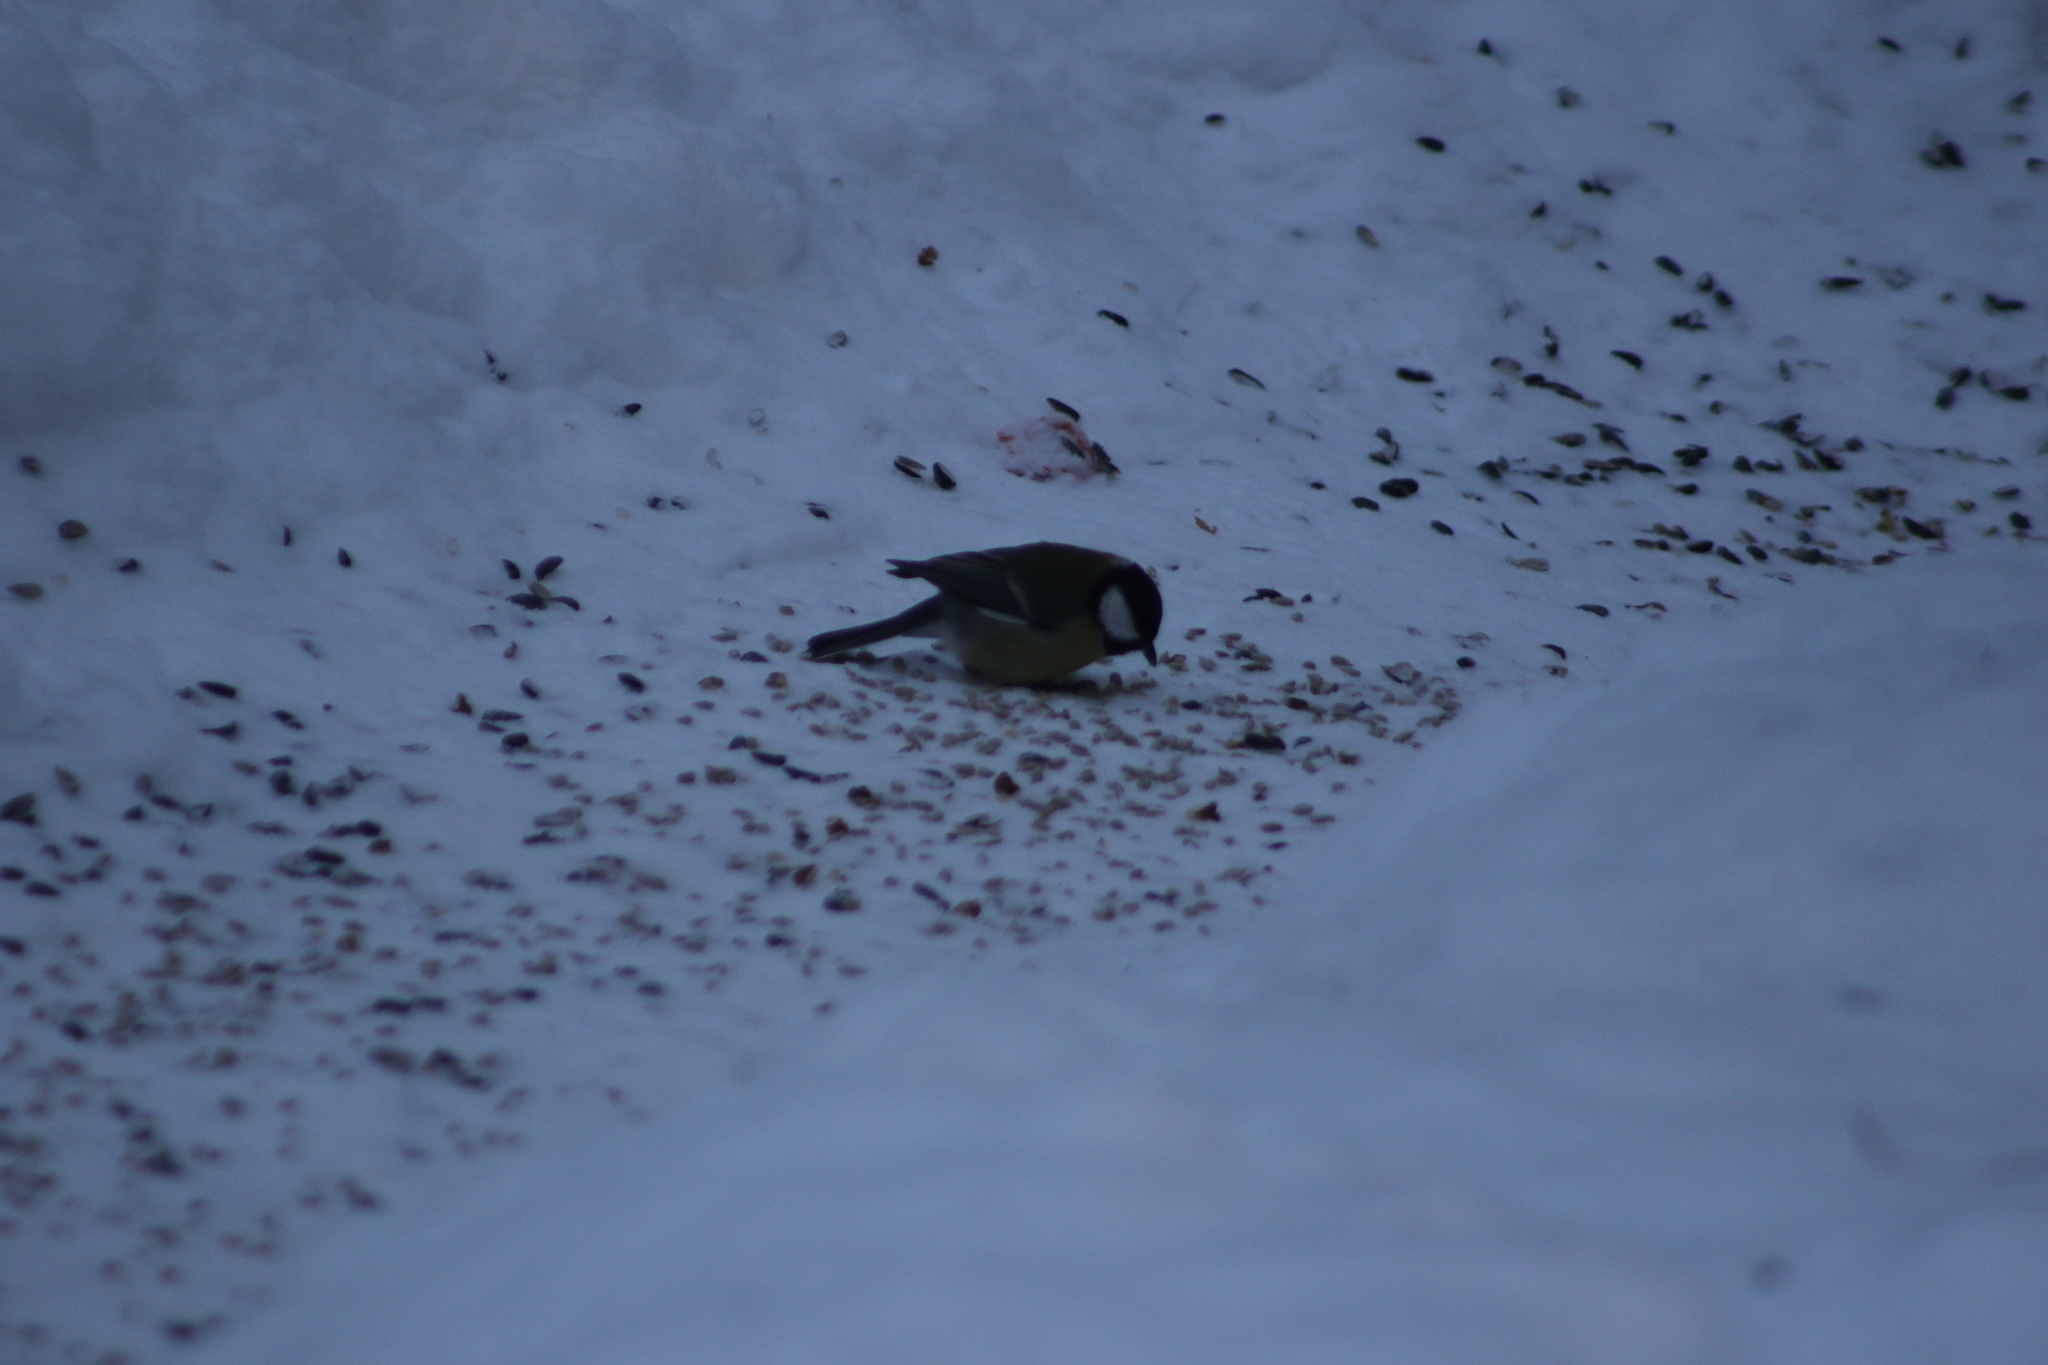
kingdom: Animalia
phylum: Chordata
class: Aves
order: Passeriformes
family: Paridae
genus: Parus
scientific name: Parus major
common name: Great tit
